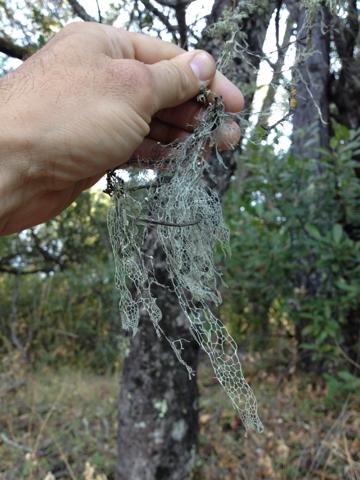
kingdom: Fungi
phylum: Ascomycota
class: Lecanoromycetes
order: Lecanorales
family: Ramalinaceae
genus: Ramalina
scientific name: Ramalina menziesii
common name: Lace lichen
